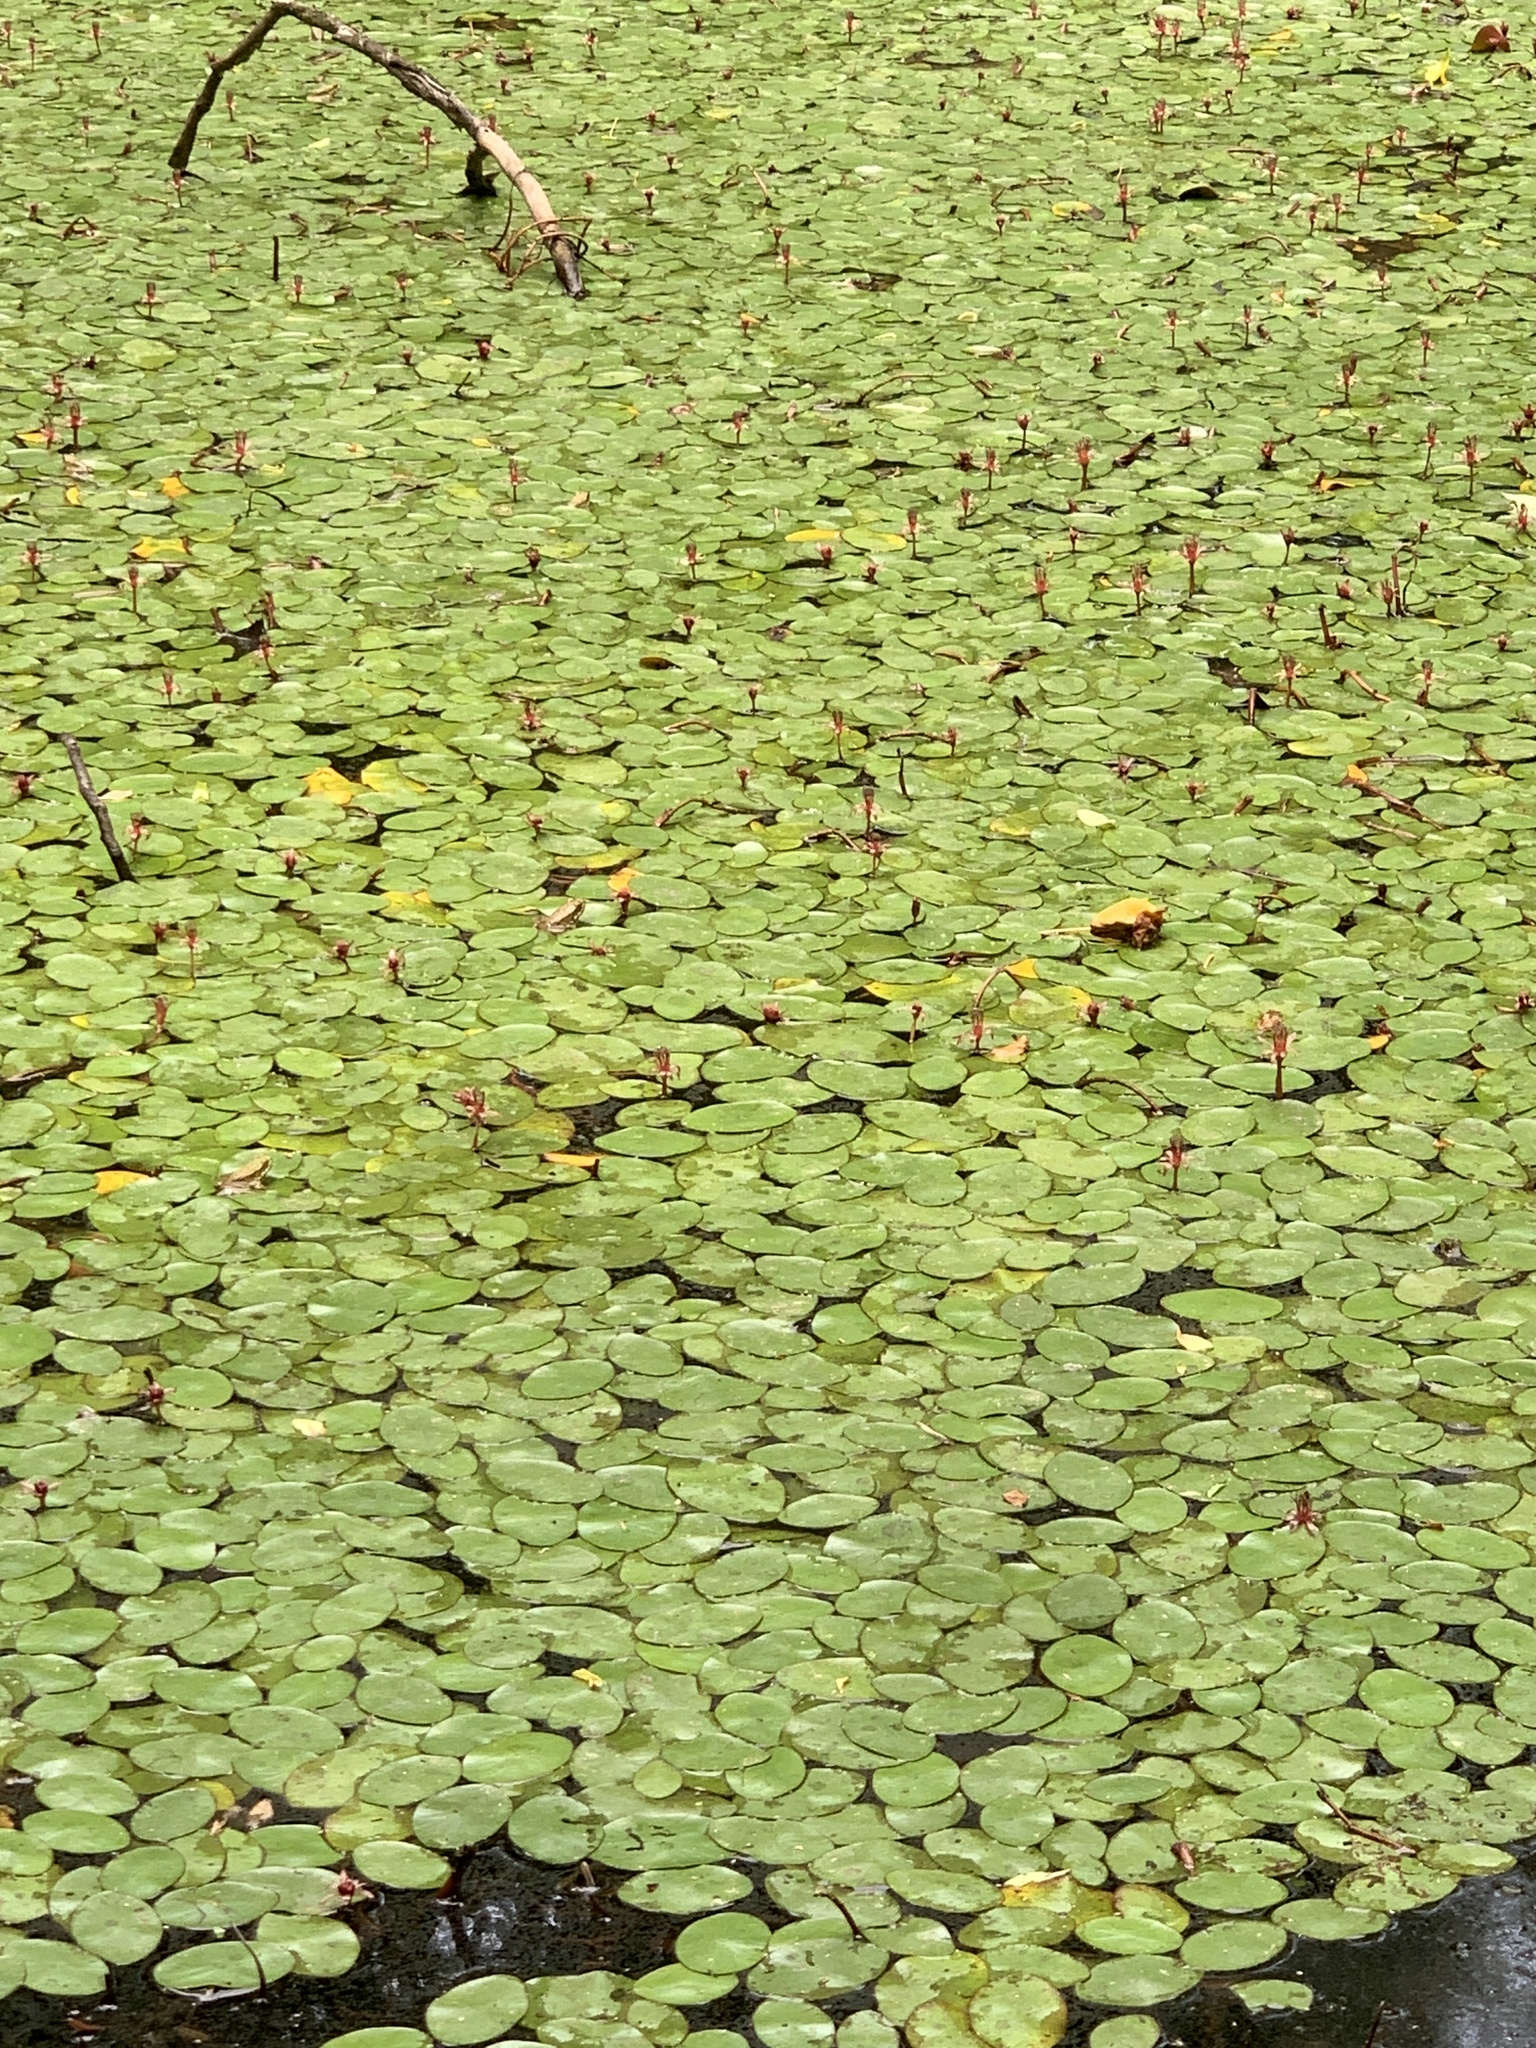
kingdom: Plantae
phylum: Tracheophyta
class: Magnoliopsida
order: Nymphaeales
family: Cabombaceae
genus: Brasenia
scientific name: Brasenia schreberi
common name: Water-shield
